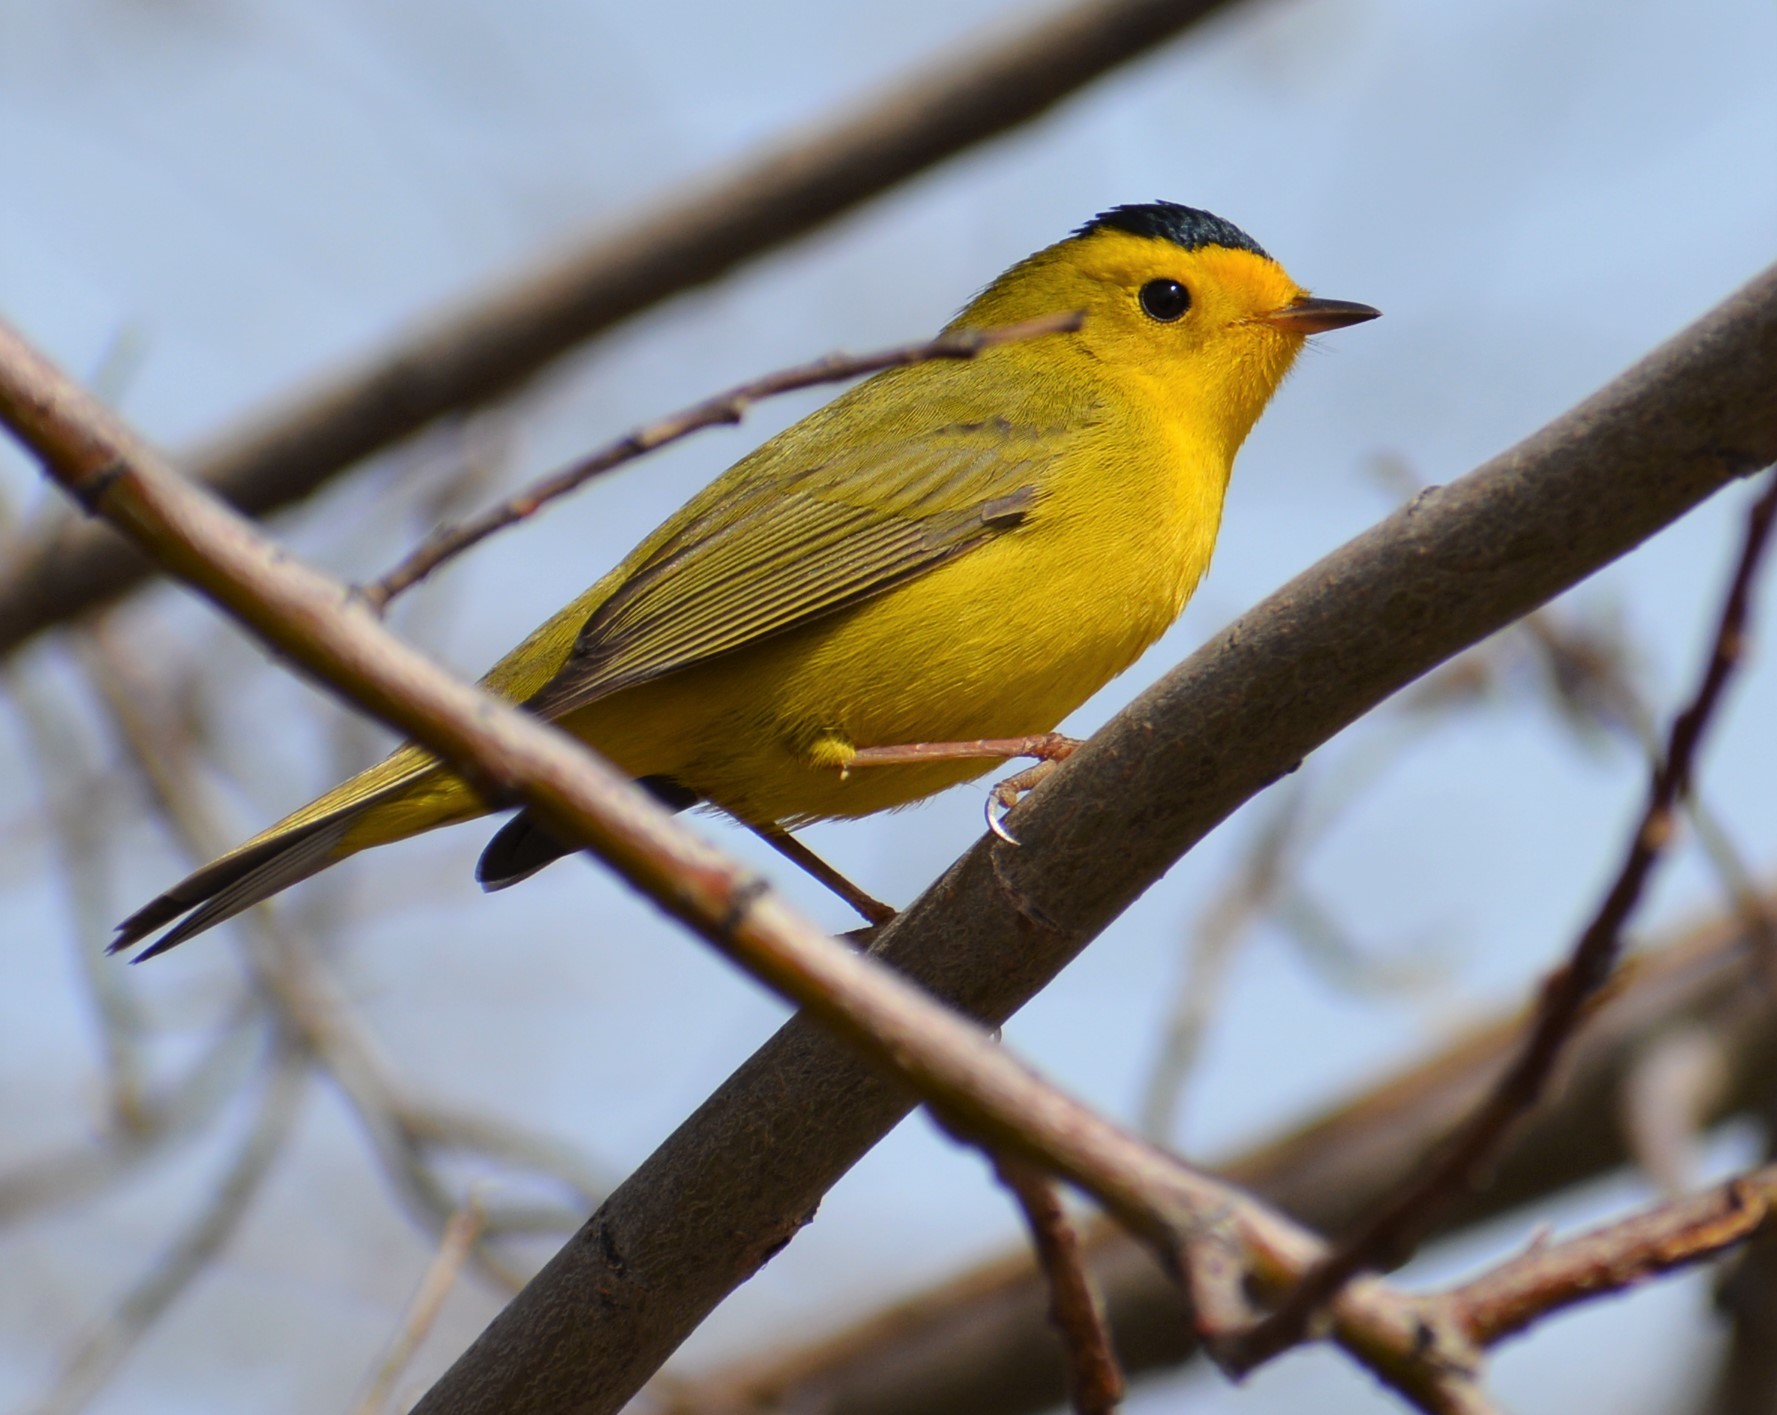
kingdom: Animalia
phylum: Chordata
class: Aves
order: Passeriformes
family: Parulidae
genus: Cardellina
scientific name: Cardellina pusilla
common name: Wilson's warbler
